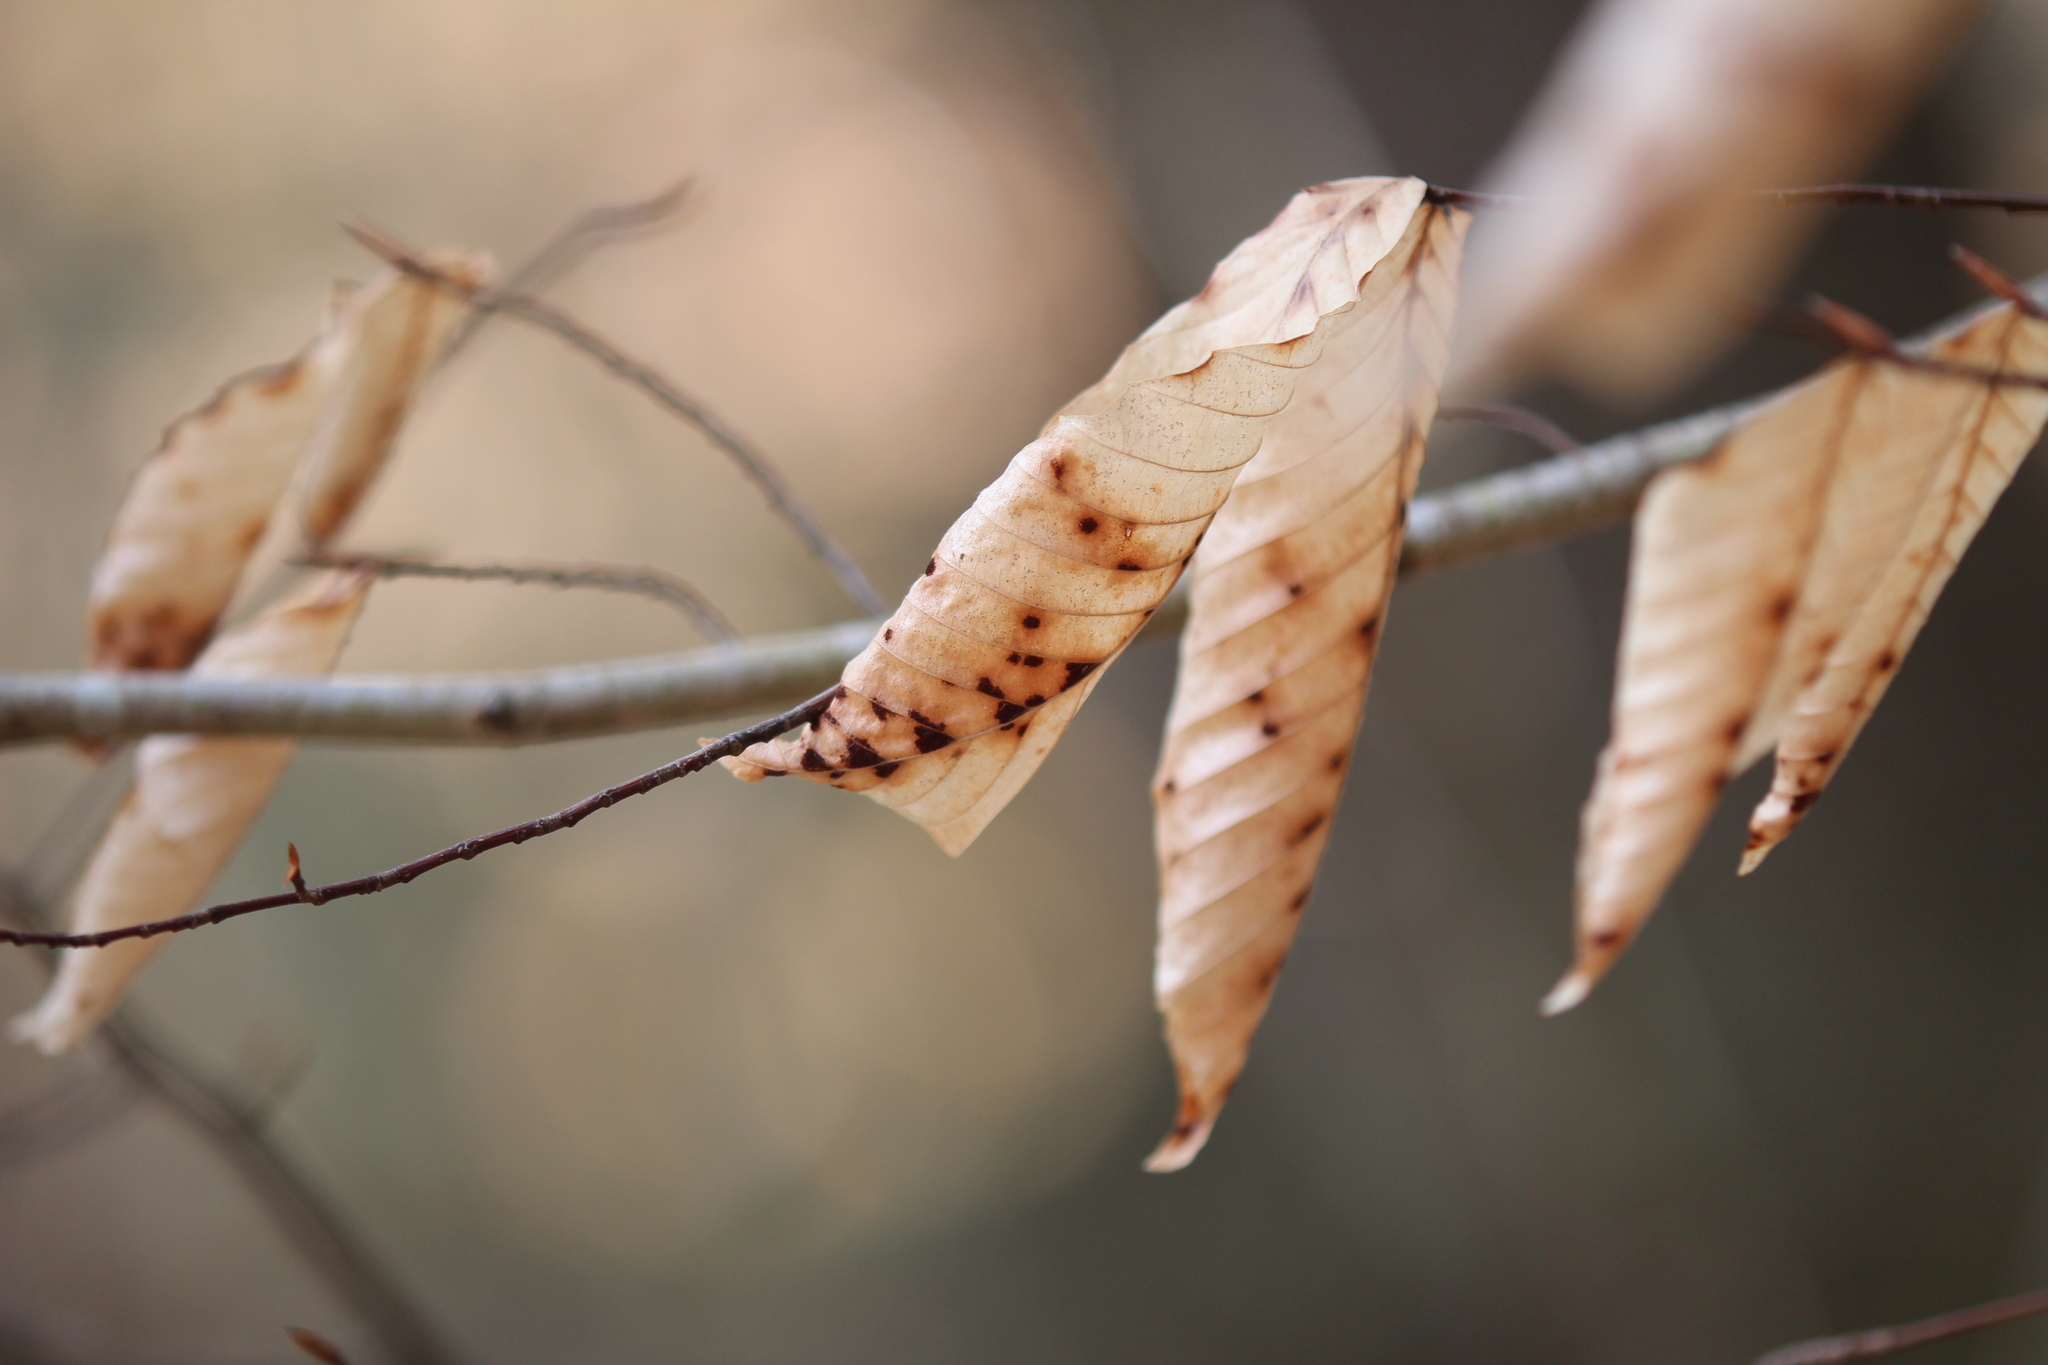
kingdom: Animalia
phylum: Arthropoda
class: Arachnida
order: Trombidiformes
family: Eriophyidae
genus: Acalitus
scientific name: Acalitus
